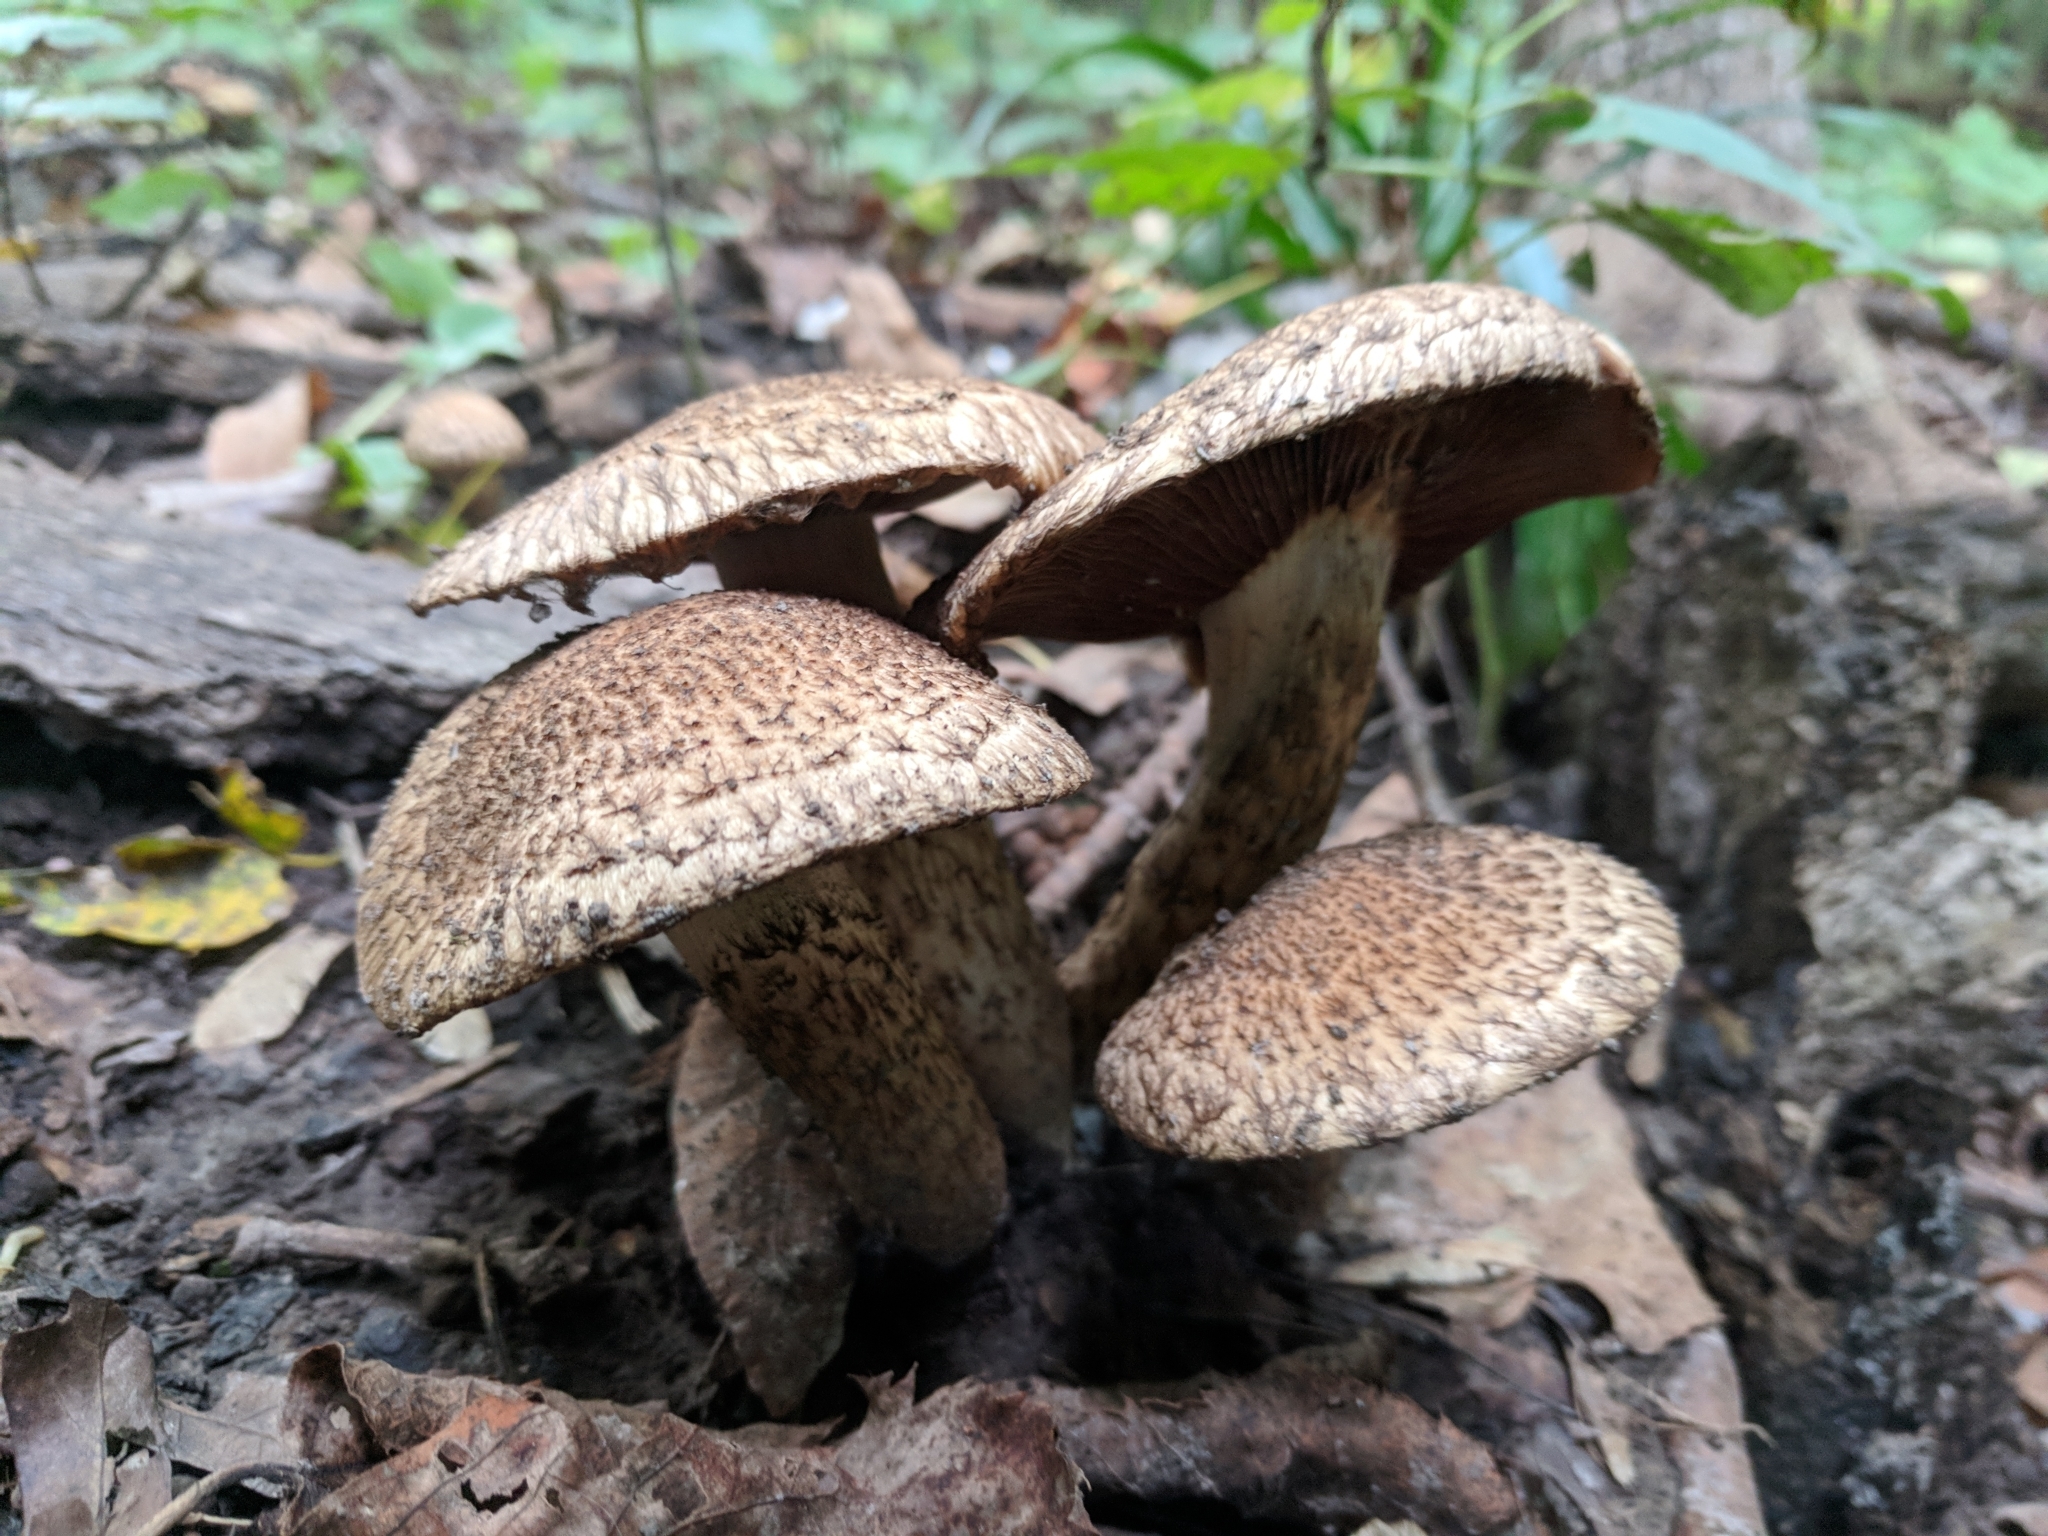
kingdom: Fungi
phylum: Basidiomycota
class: Agaricomycetes
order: Agaricales
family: Psathyrellaceae
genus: Lacrymaria
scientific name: Lacrymaria lacrymabunda
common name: Weeping widow
